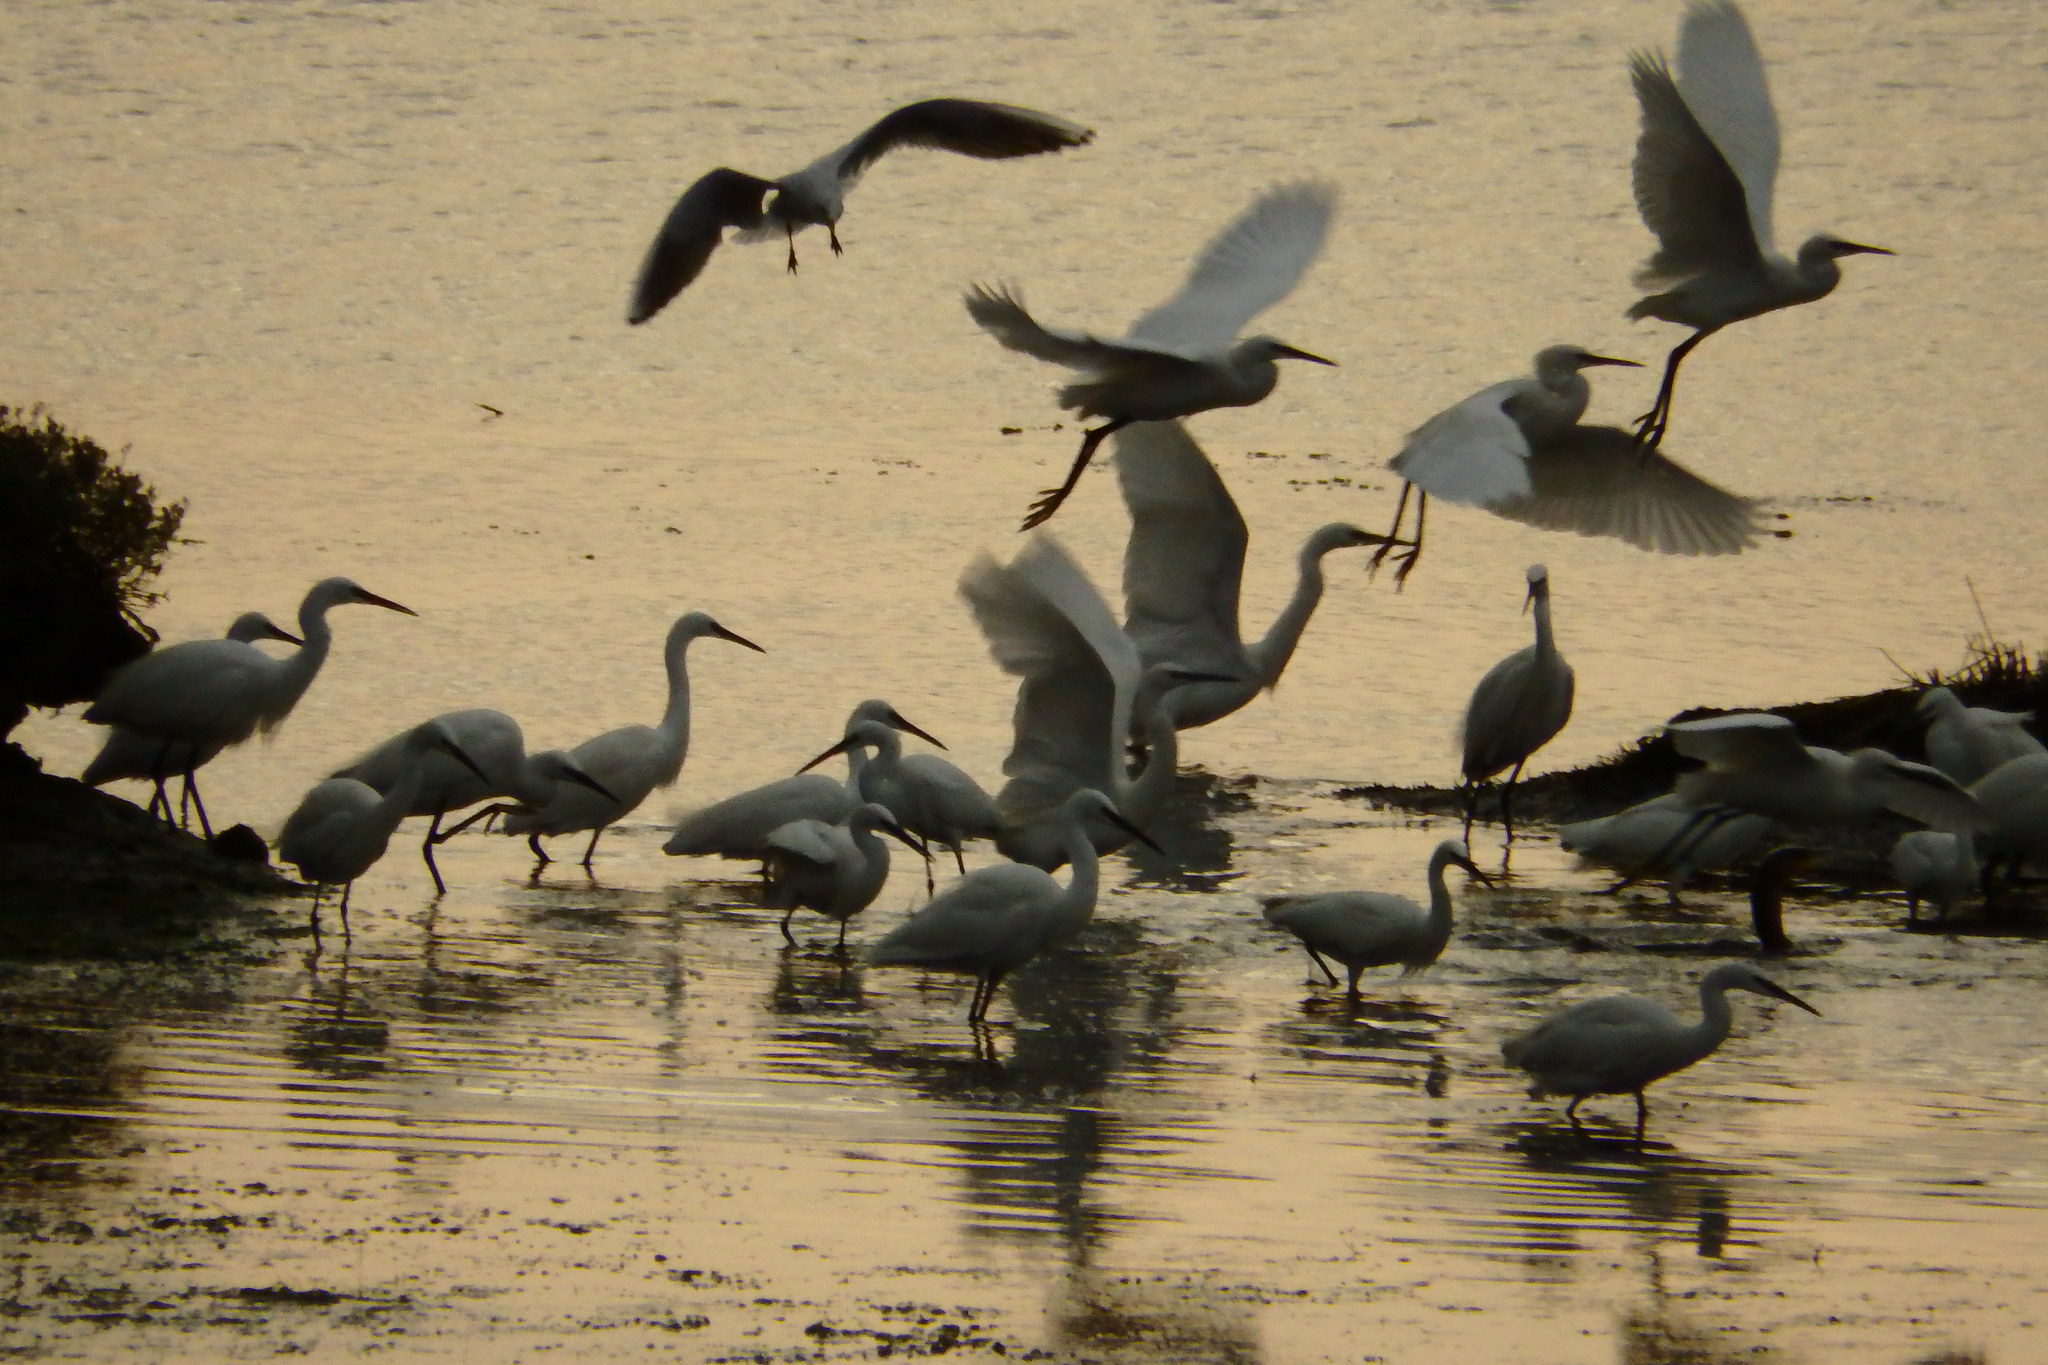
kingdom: Animalia
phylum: Chordata
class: Aves
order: Pelecaniformes
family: Ardeidae
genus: Egretta
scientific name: Egretta garzetta
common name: Little egret
